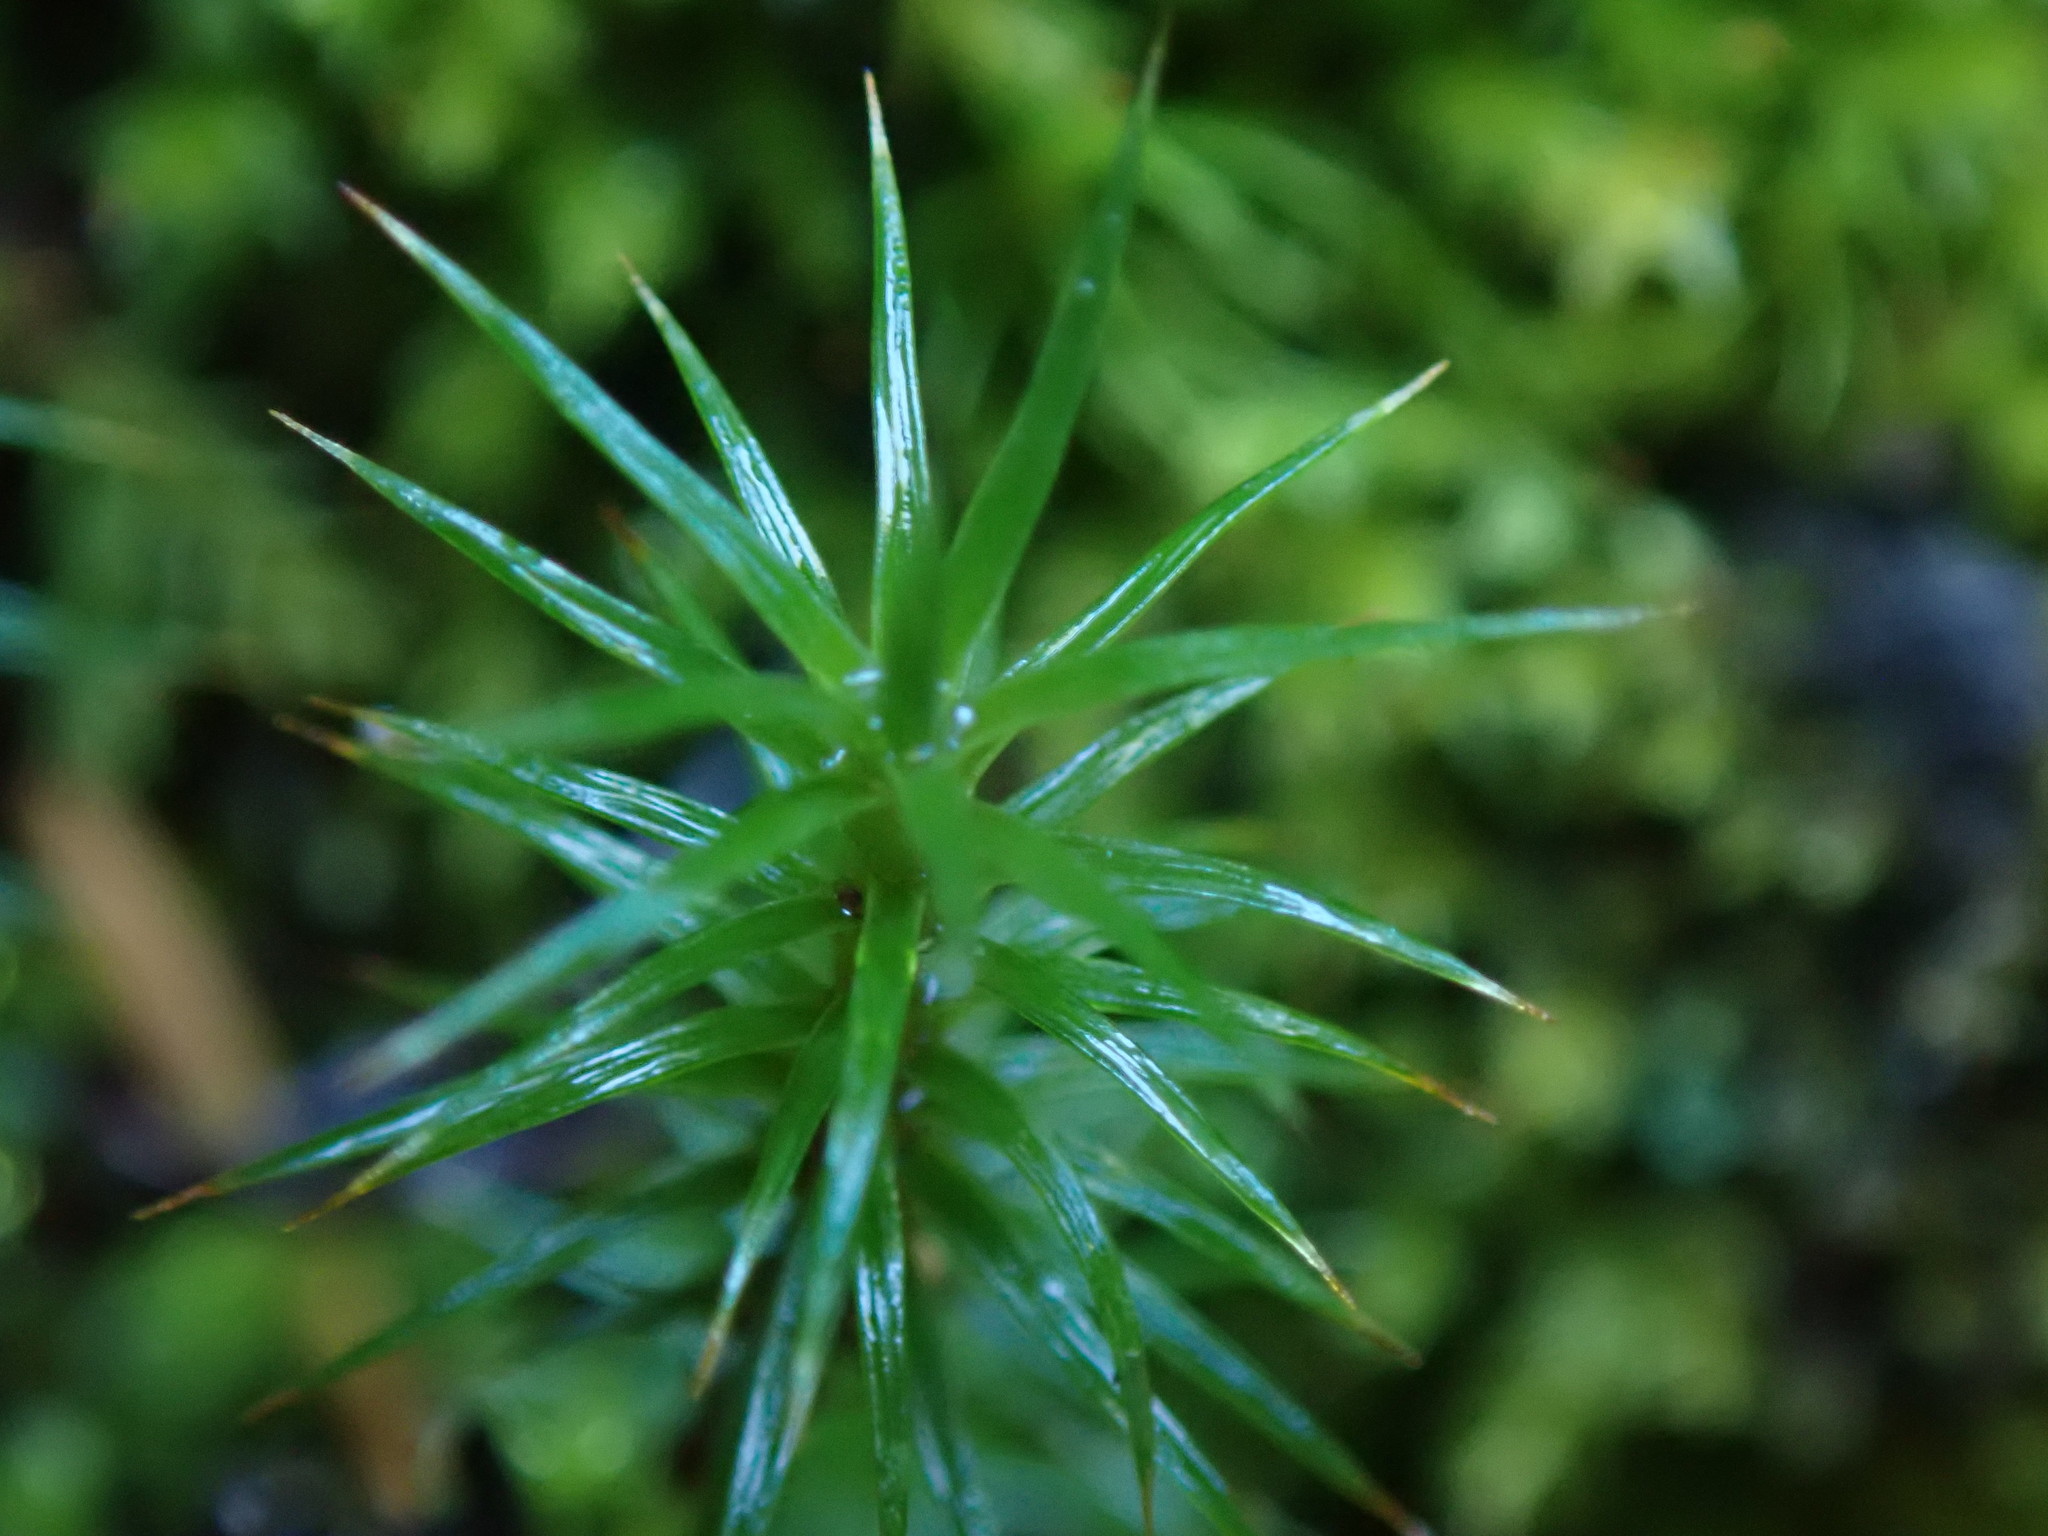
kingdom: Plantae
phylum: Bryophyta
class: Polytrichopsida
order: Polytrichales
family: Polytrichaceae
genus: Polytrichum
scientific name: Polytrichum juniperinum
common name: Juniper haircap moss
